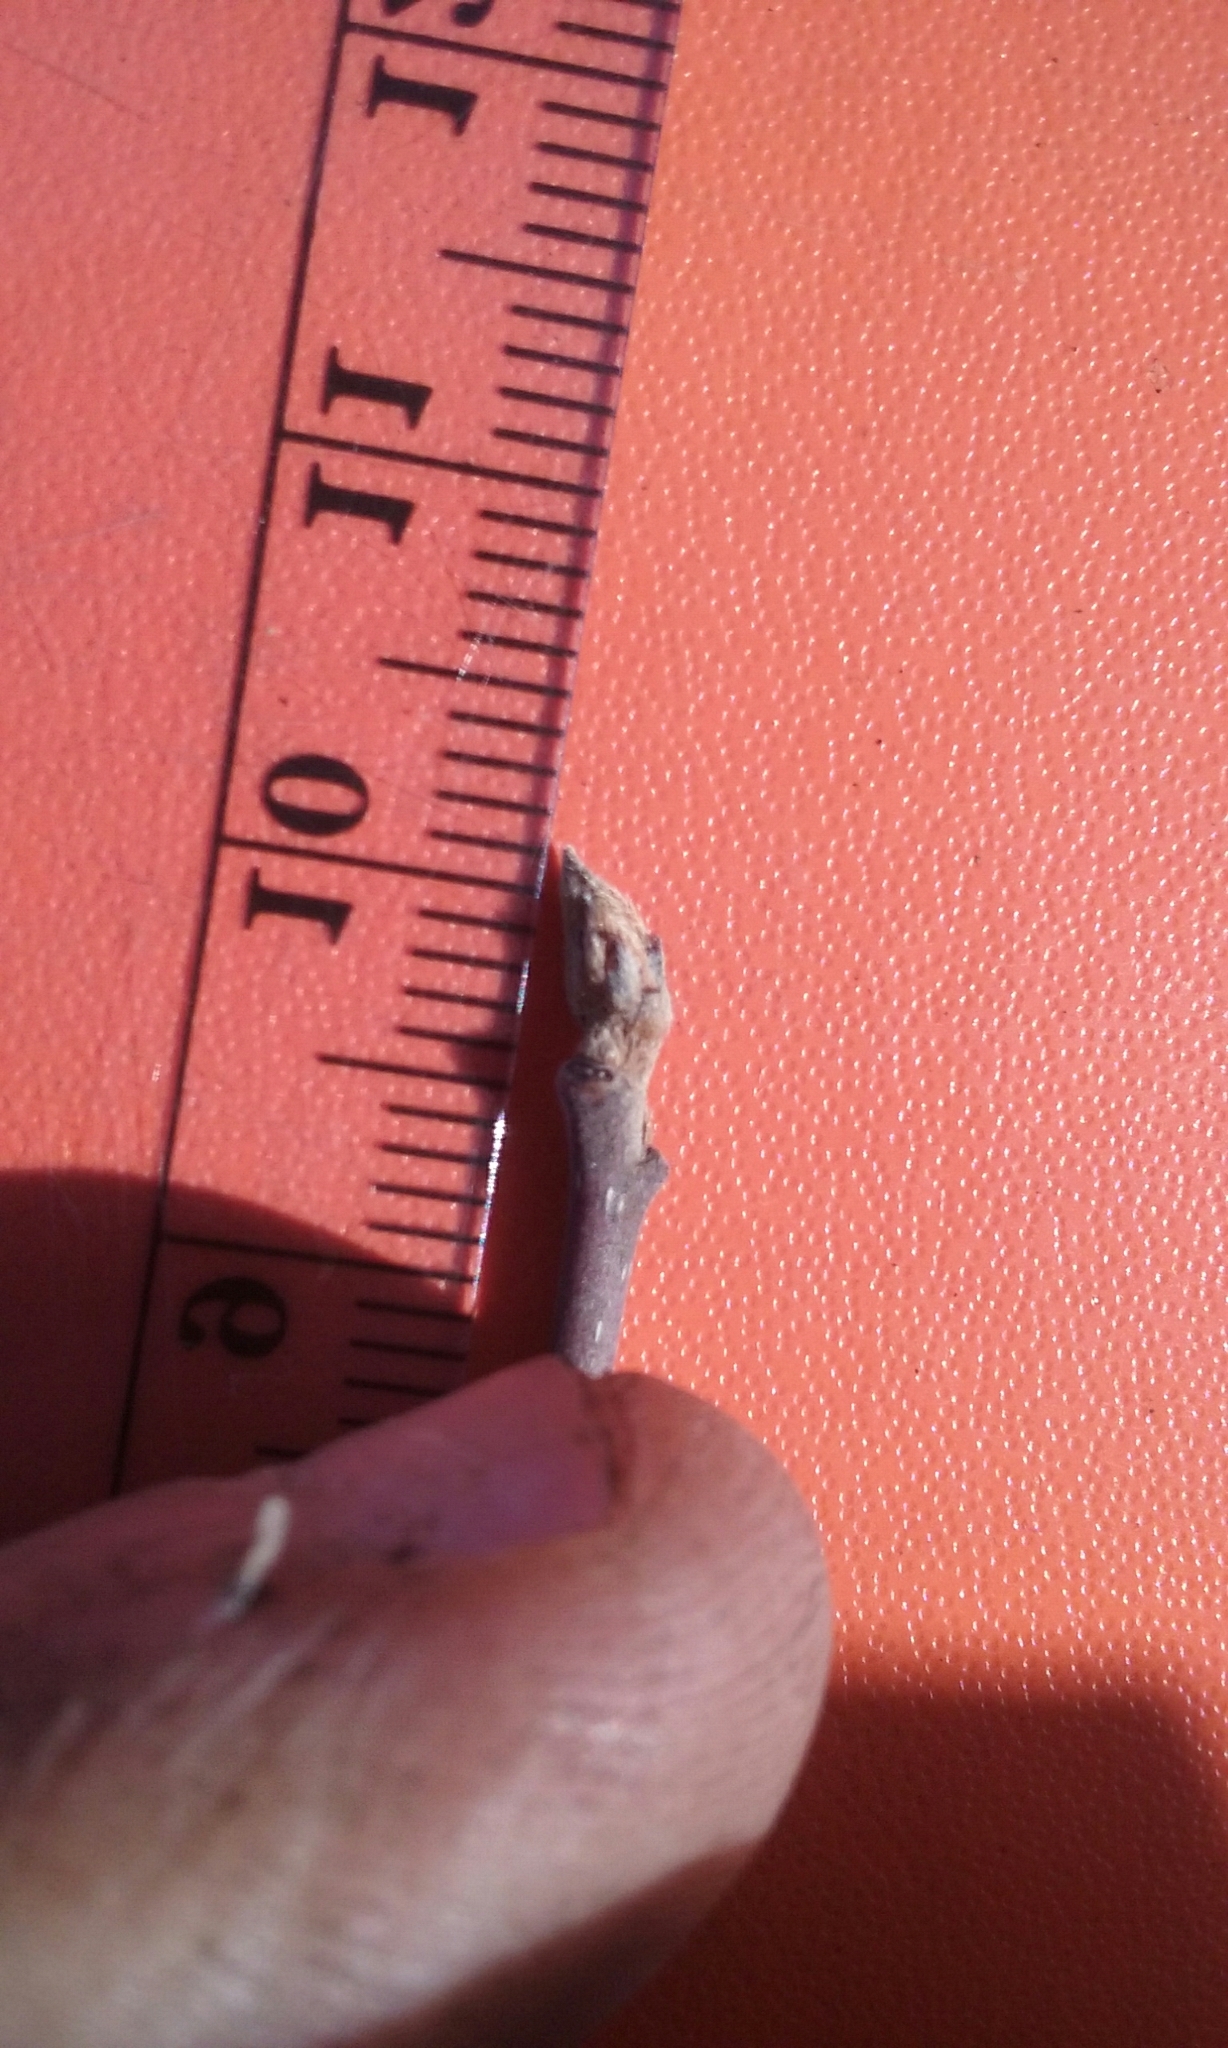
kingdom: Plantae
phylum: Tracheophyta
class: Magnoliopsida
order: Rosales
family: Rhamnaceae
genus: Frangula
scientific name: Frangula alnus
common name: Alder buckthorn
